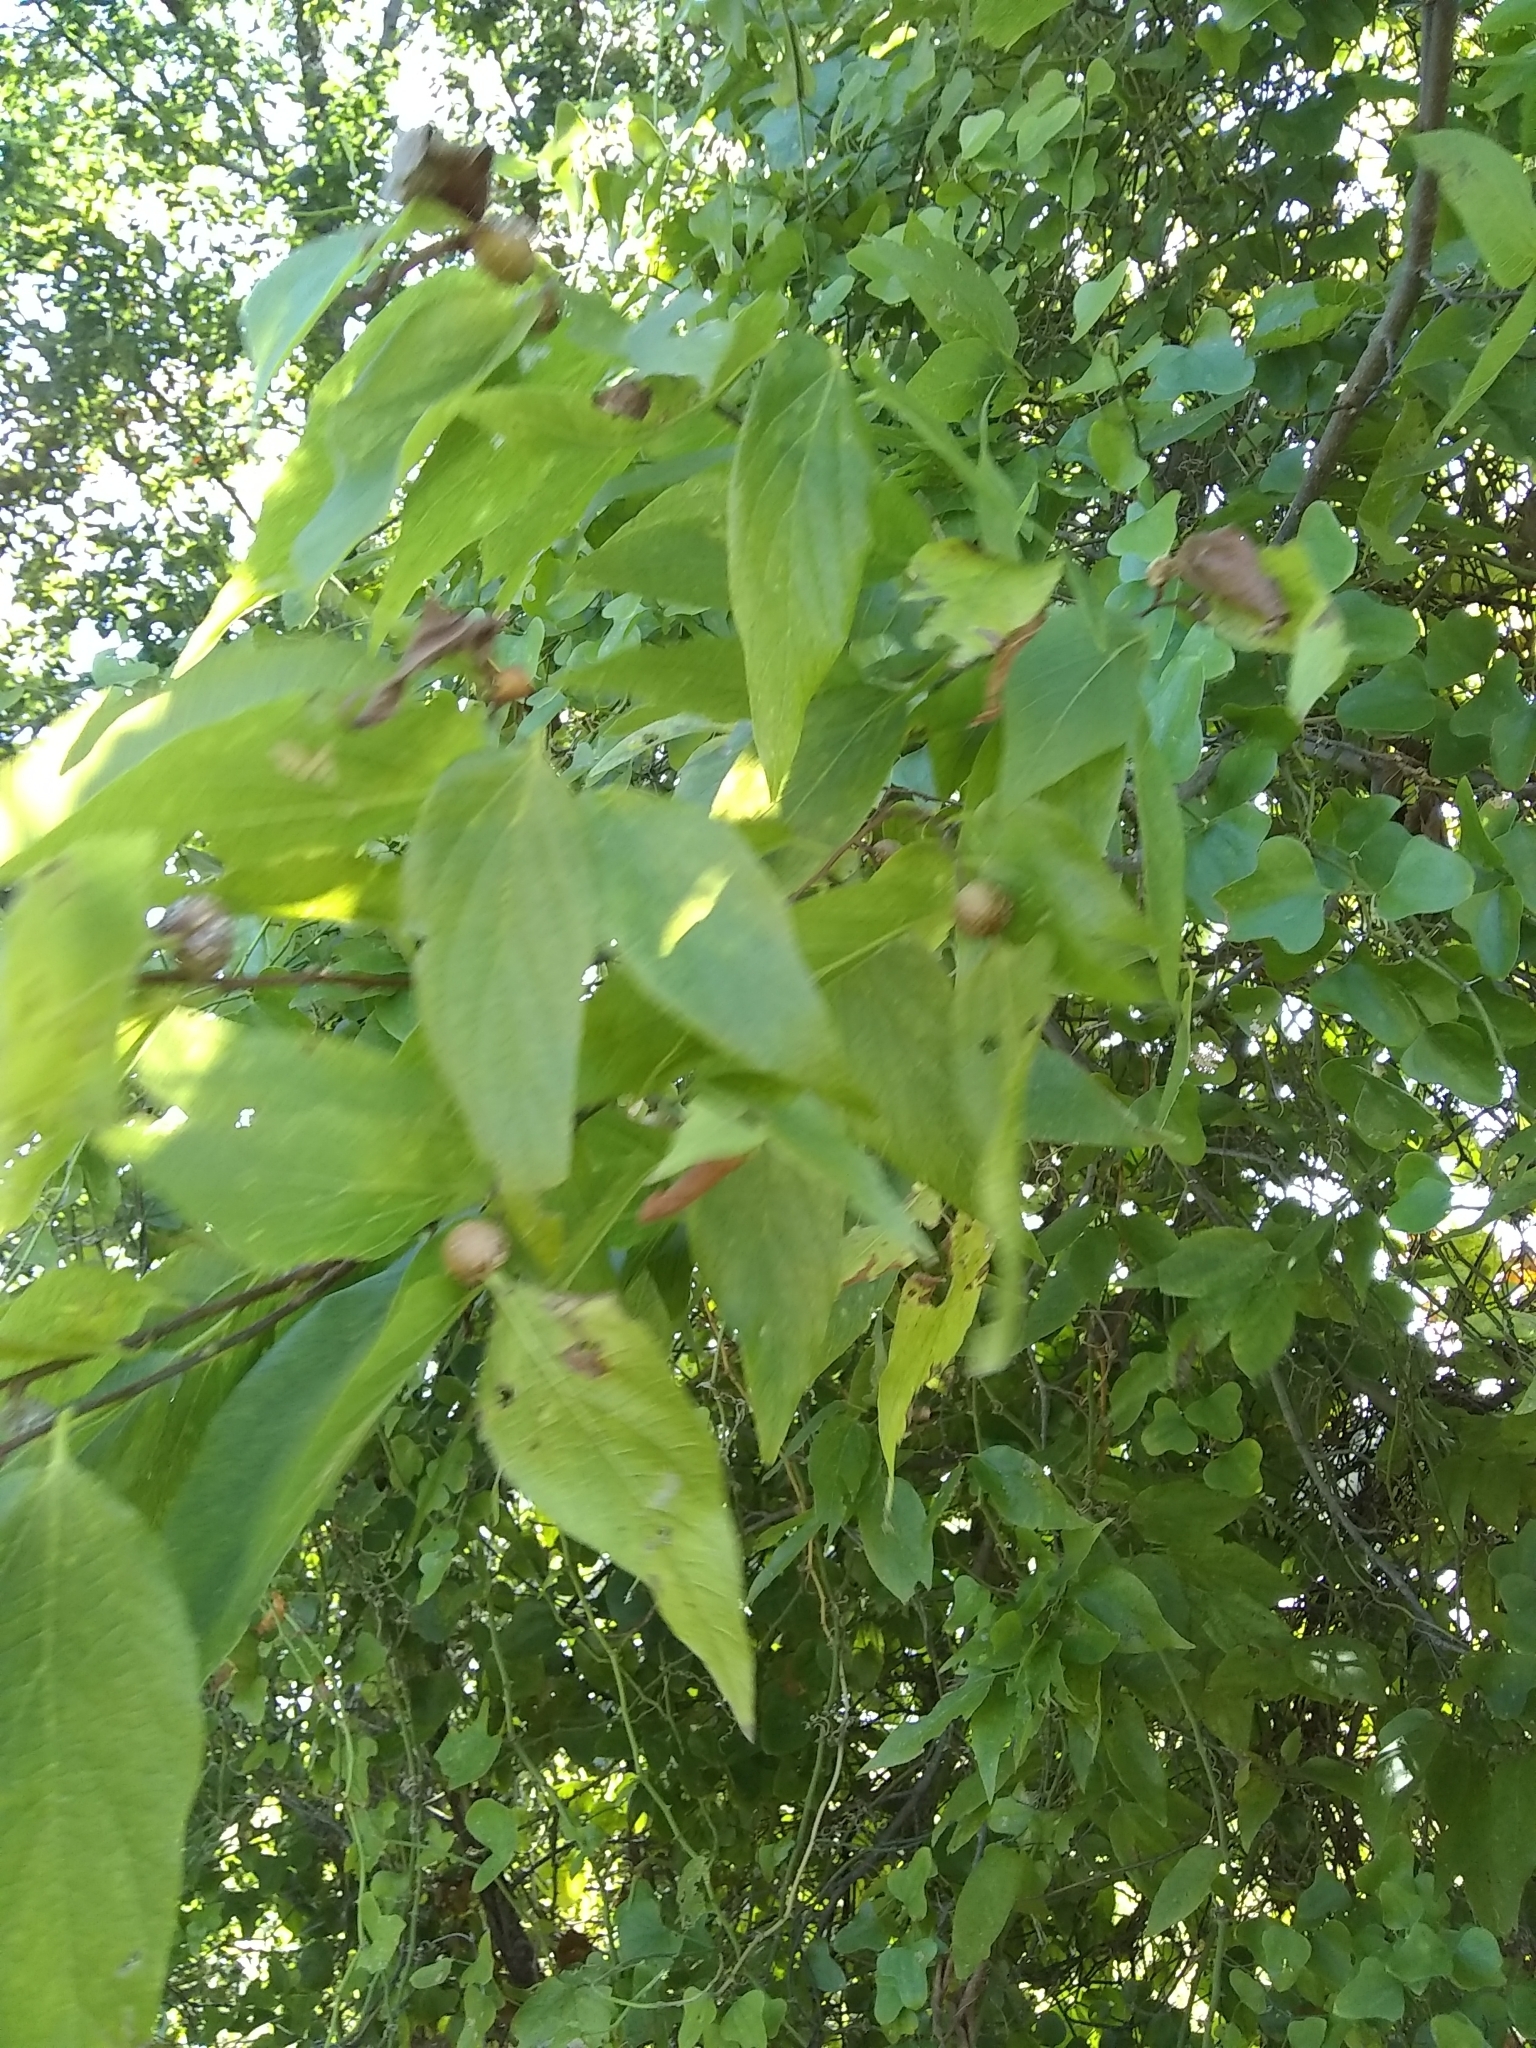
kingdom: Animalia
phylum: Arthropoda
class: Insecta
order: Hemiptera
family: Aphalaridae
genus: Pachypsylla
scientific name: Pachypsylla venusta
